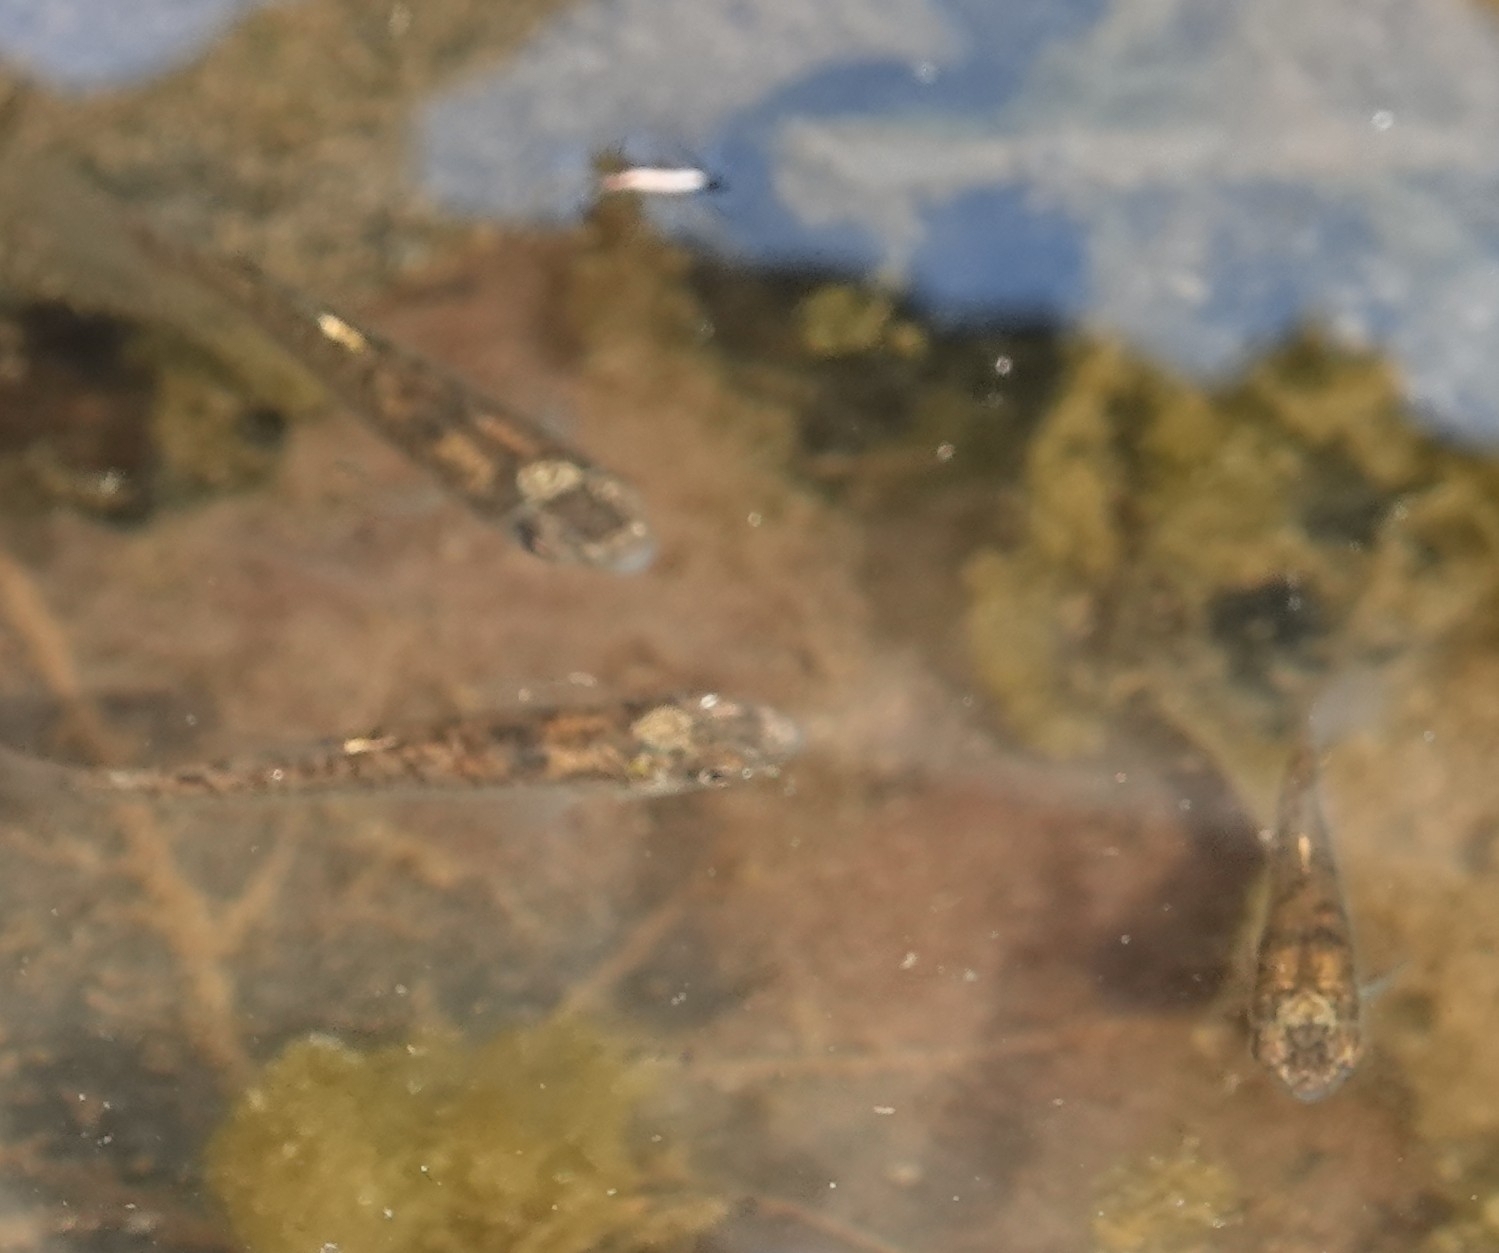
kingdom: Animalia
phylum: Chordata
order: Cyprinodontiformes
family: Fundulidae
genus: Fundulus
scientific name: Fundulus catenatus
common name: Northern studfish
